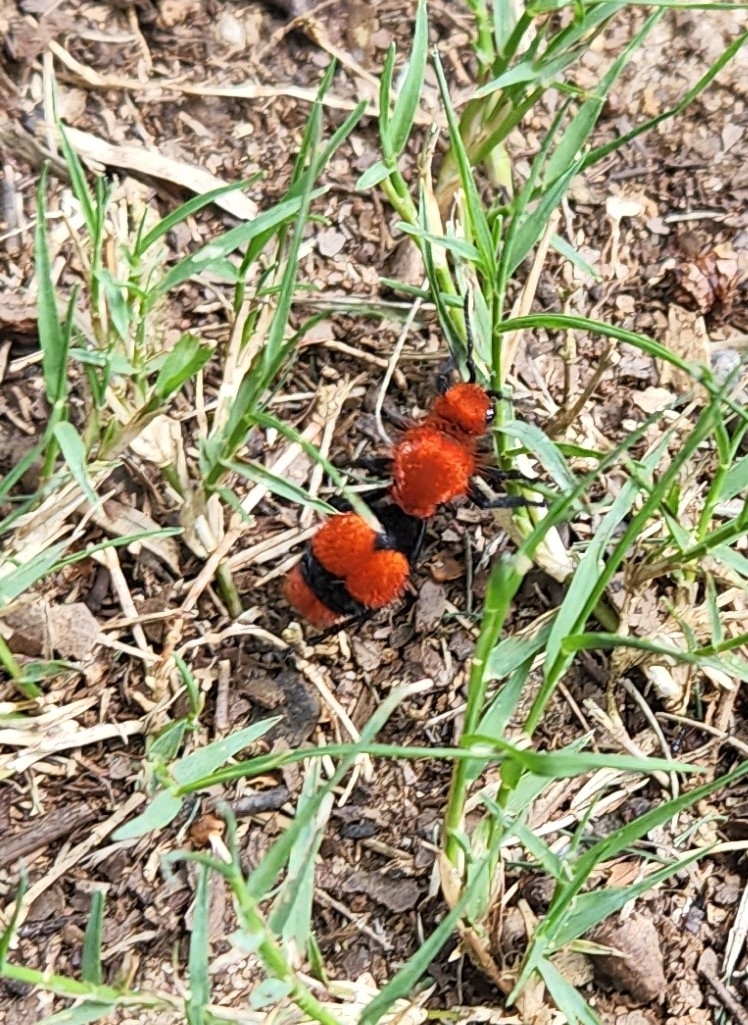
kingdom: Animalia
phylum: Arthropoda
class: Insecta
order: Hymenoptera
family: Mutillidae
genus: Dasymutilla
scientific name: Dasymutilla occidentalis
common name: Common eastern velvet ant
